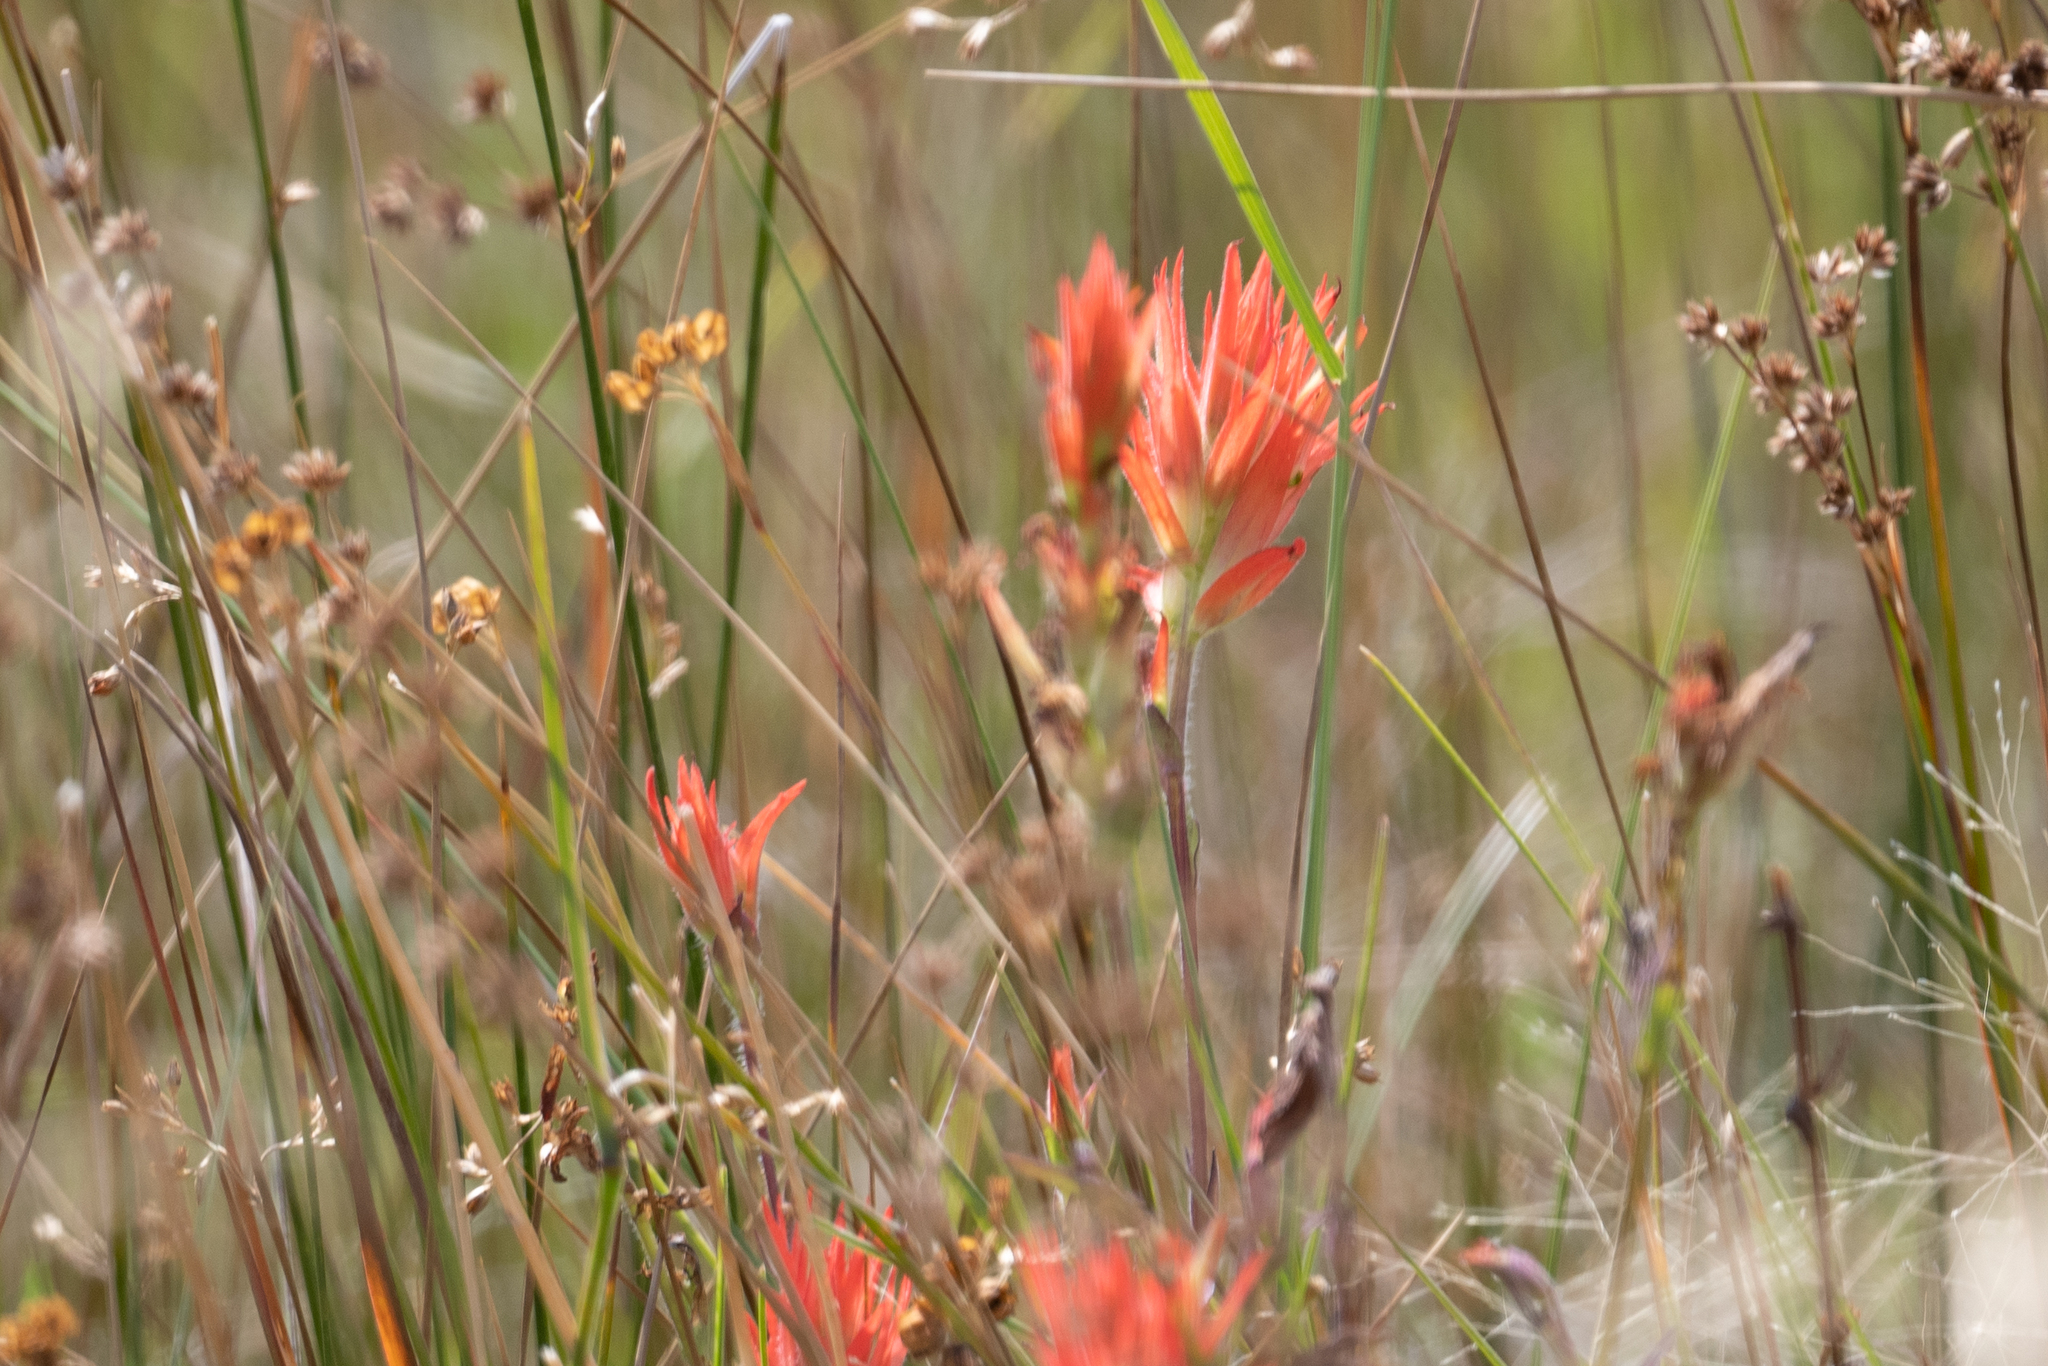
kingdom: Plantae
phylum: Tracheophyta
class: Magnoliopsida
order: Lamiales
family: Orobanchaceae
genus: Castilleja
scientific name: Castilleja miniata
